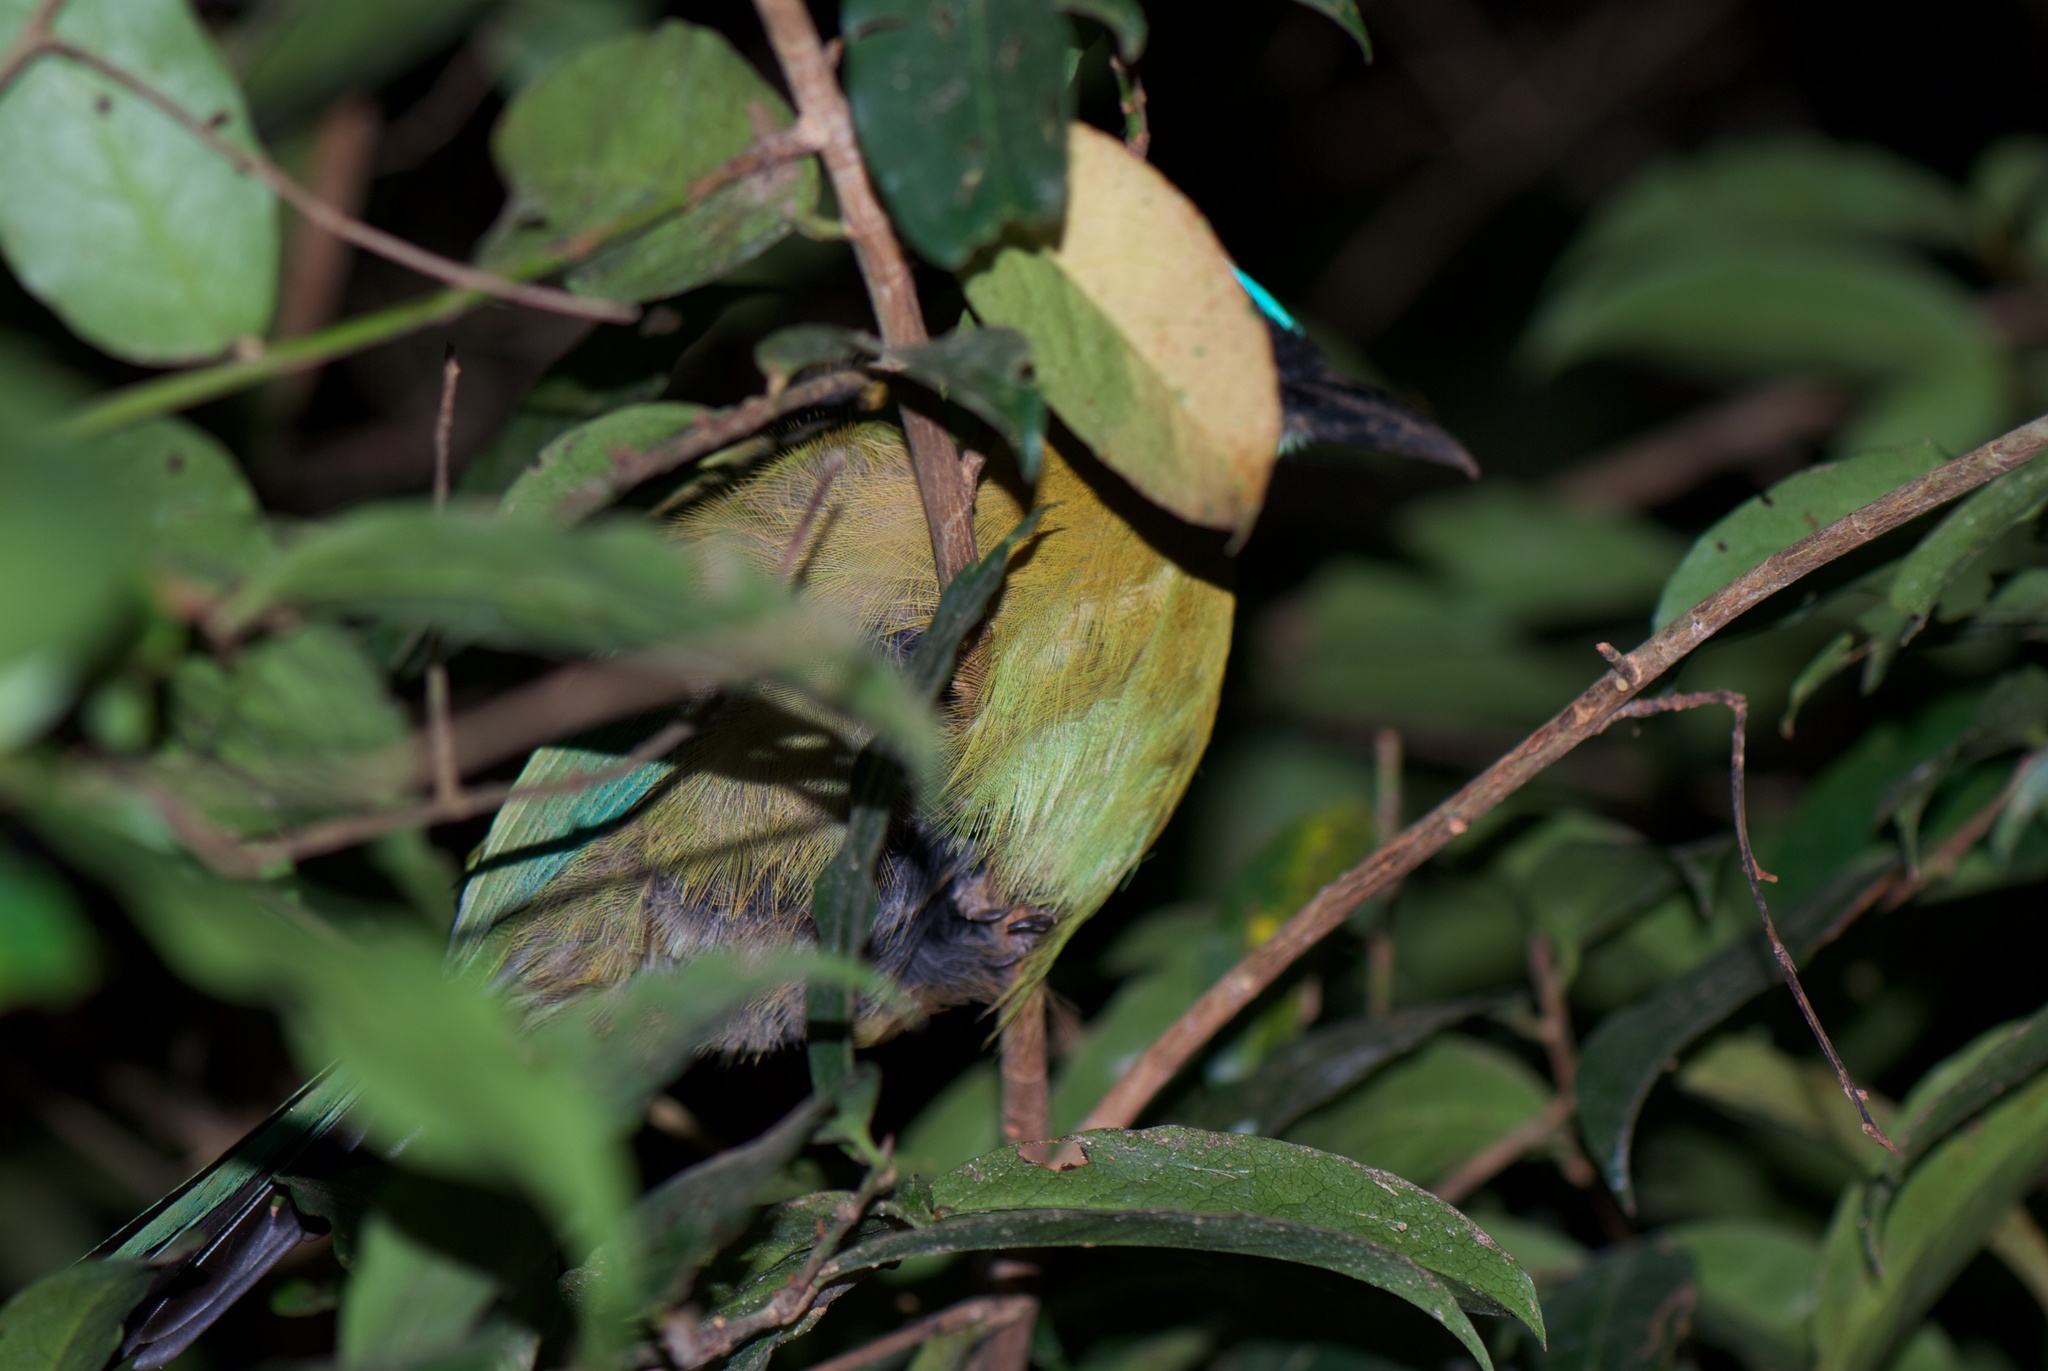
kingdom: Animalia
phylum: Chordata
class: Aves
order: Coraciiformes
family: Momotidae
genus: Momotus
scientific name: Momotus lessonii
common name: Lesson's motmot
